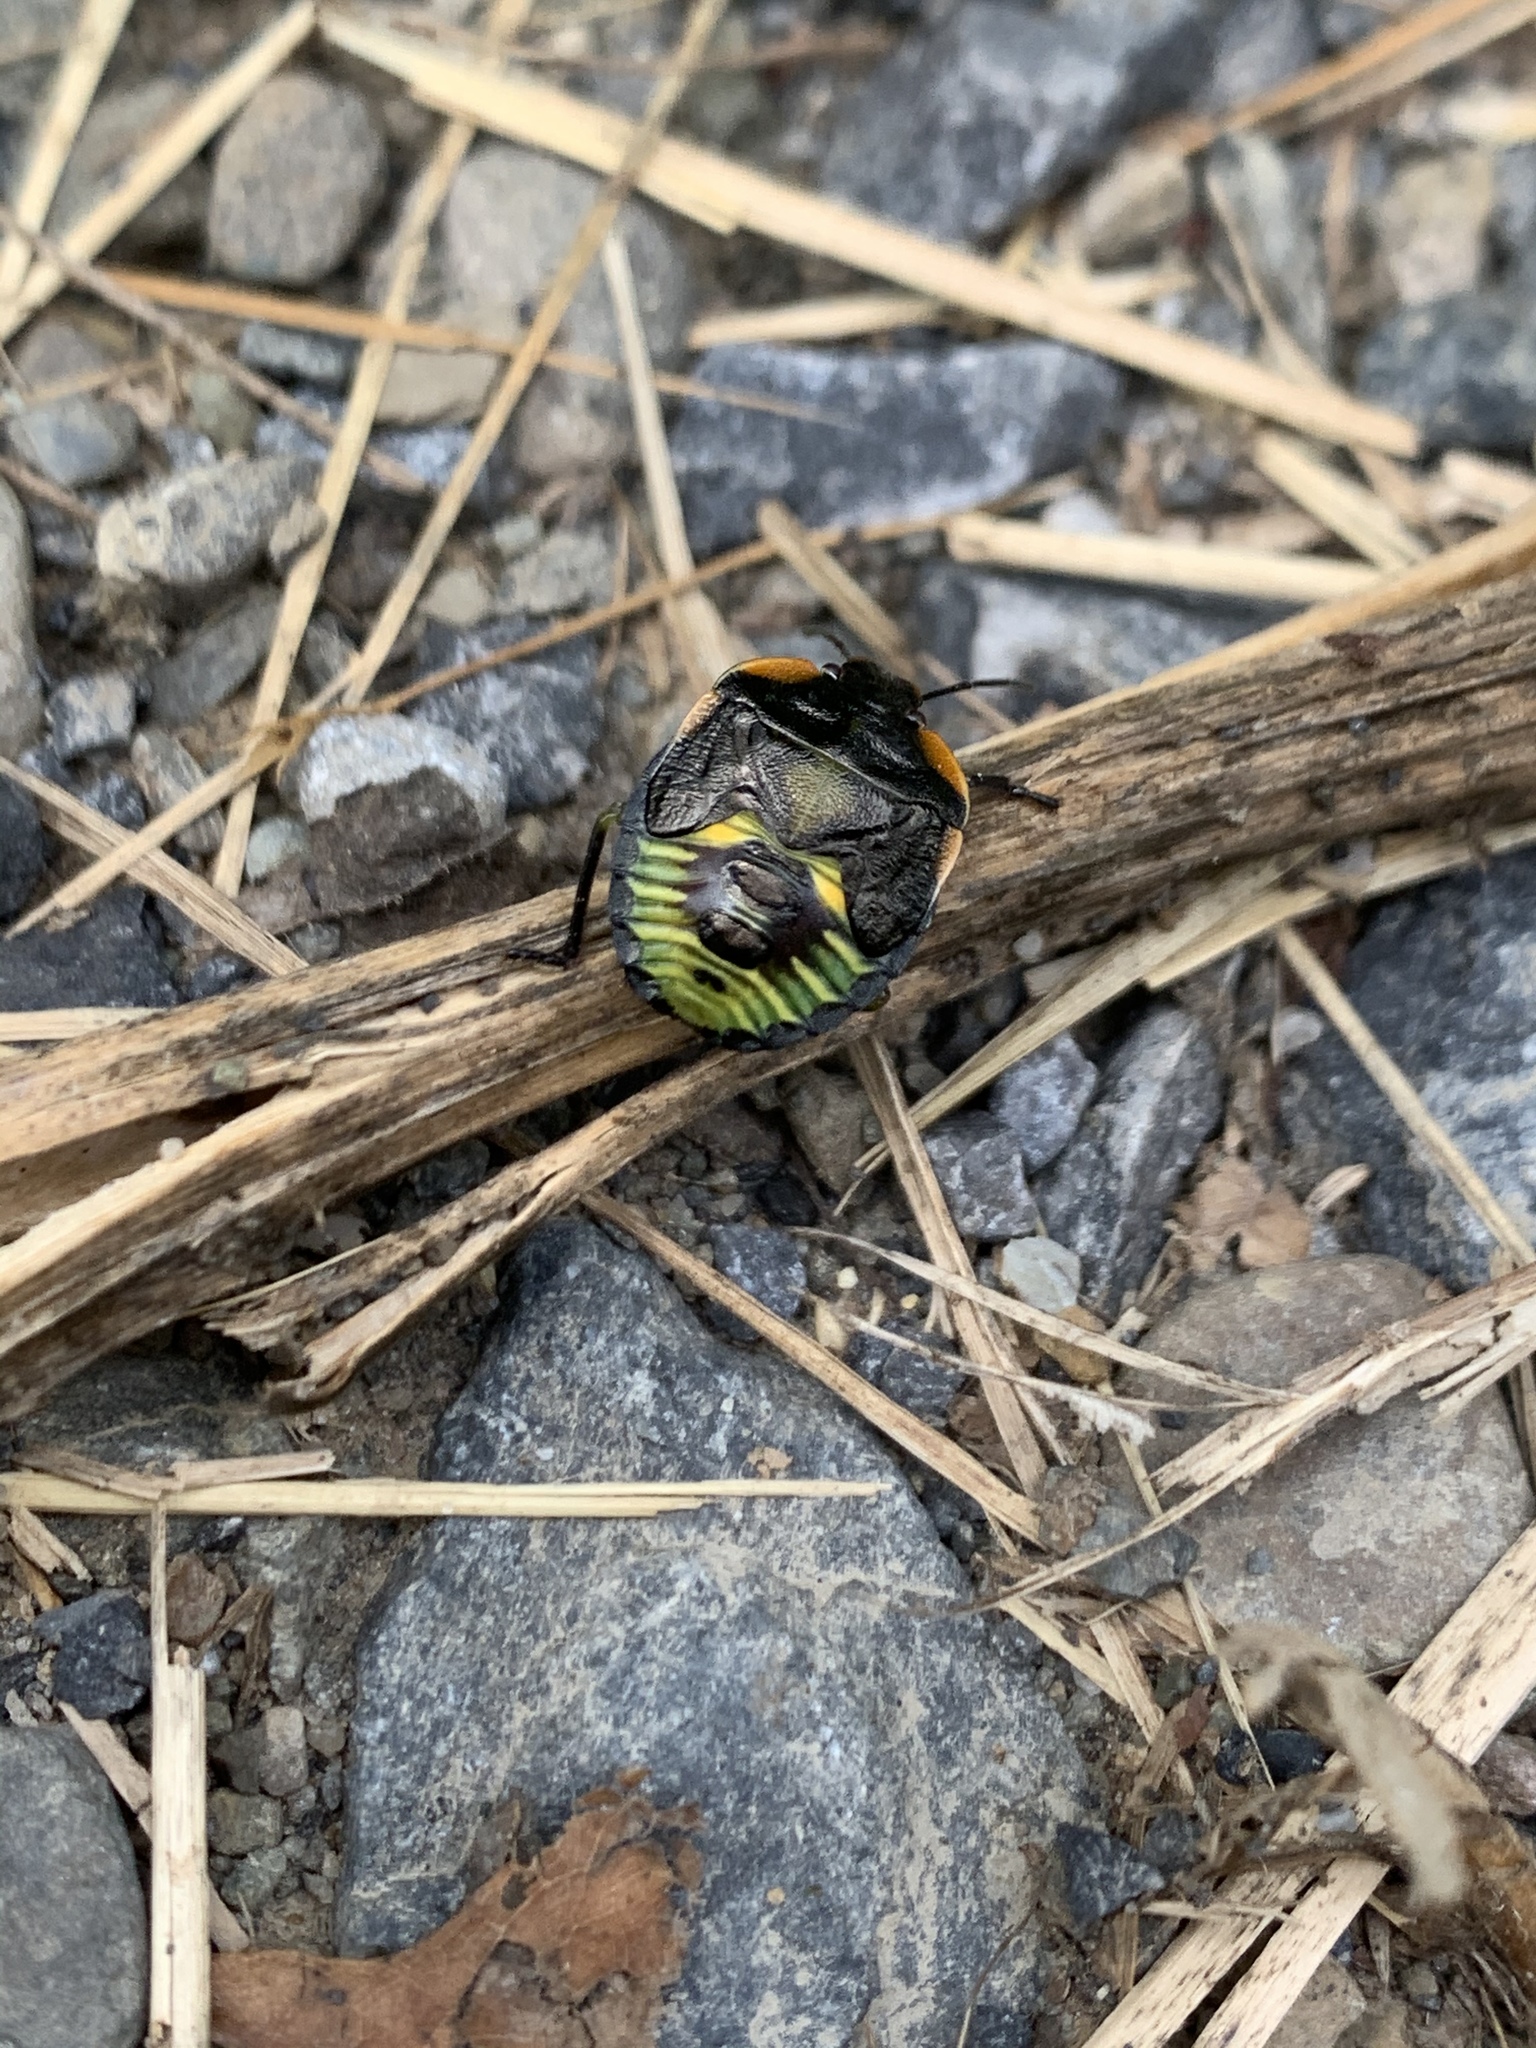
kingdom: Animalia
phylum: Arthropoda
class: Insecta
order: Hemiptera
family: Pentatomidae
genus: Chinavia
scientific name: Chinavia hilaris
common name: Green stink bug
